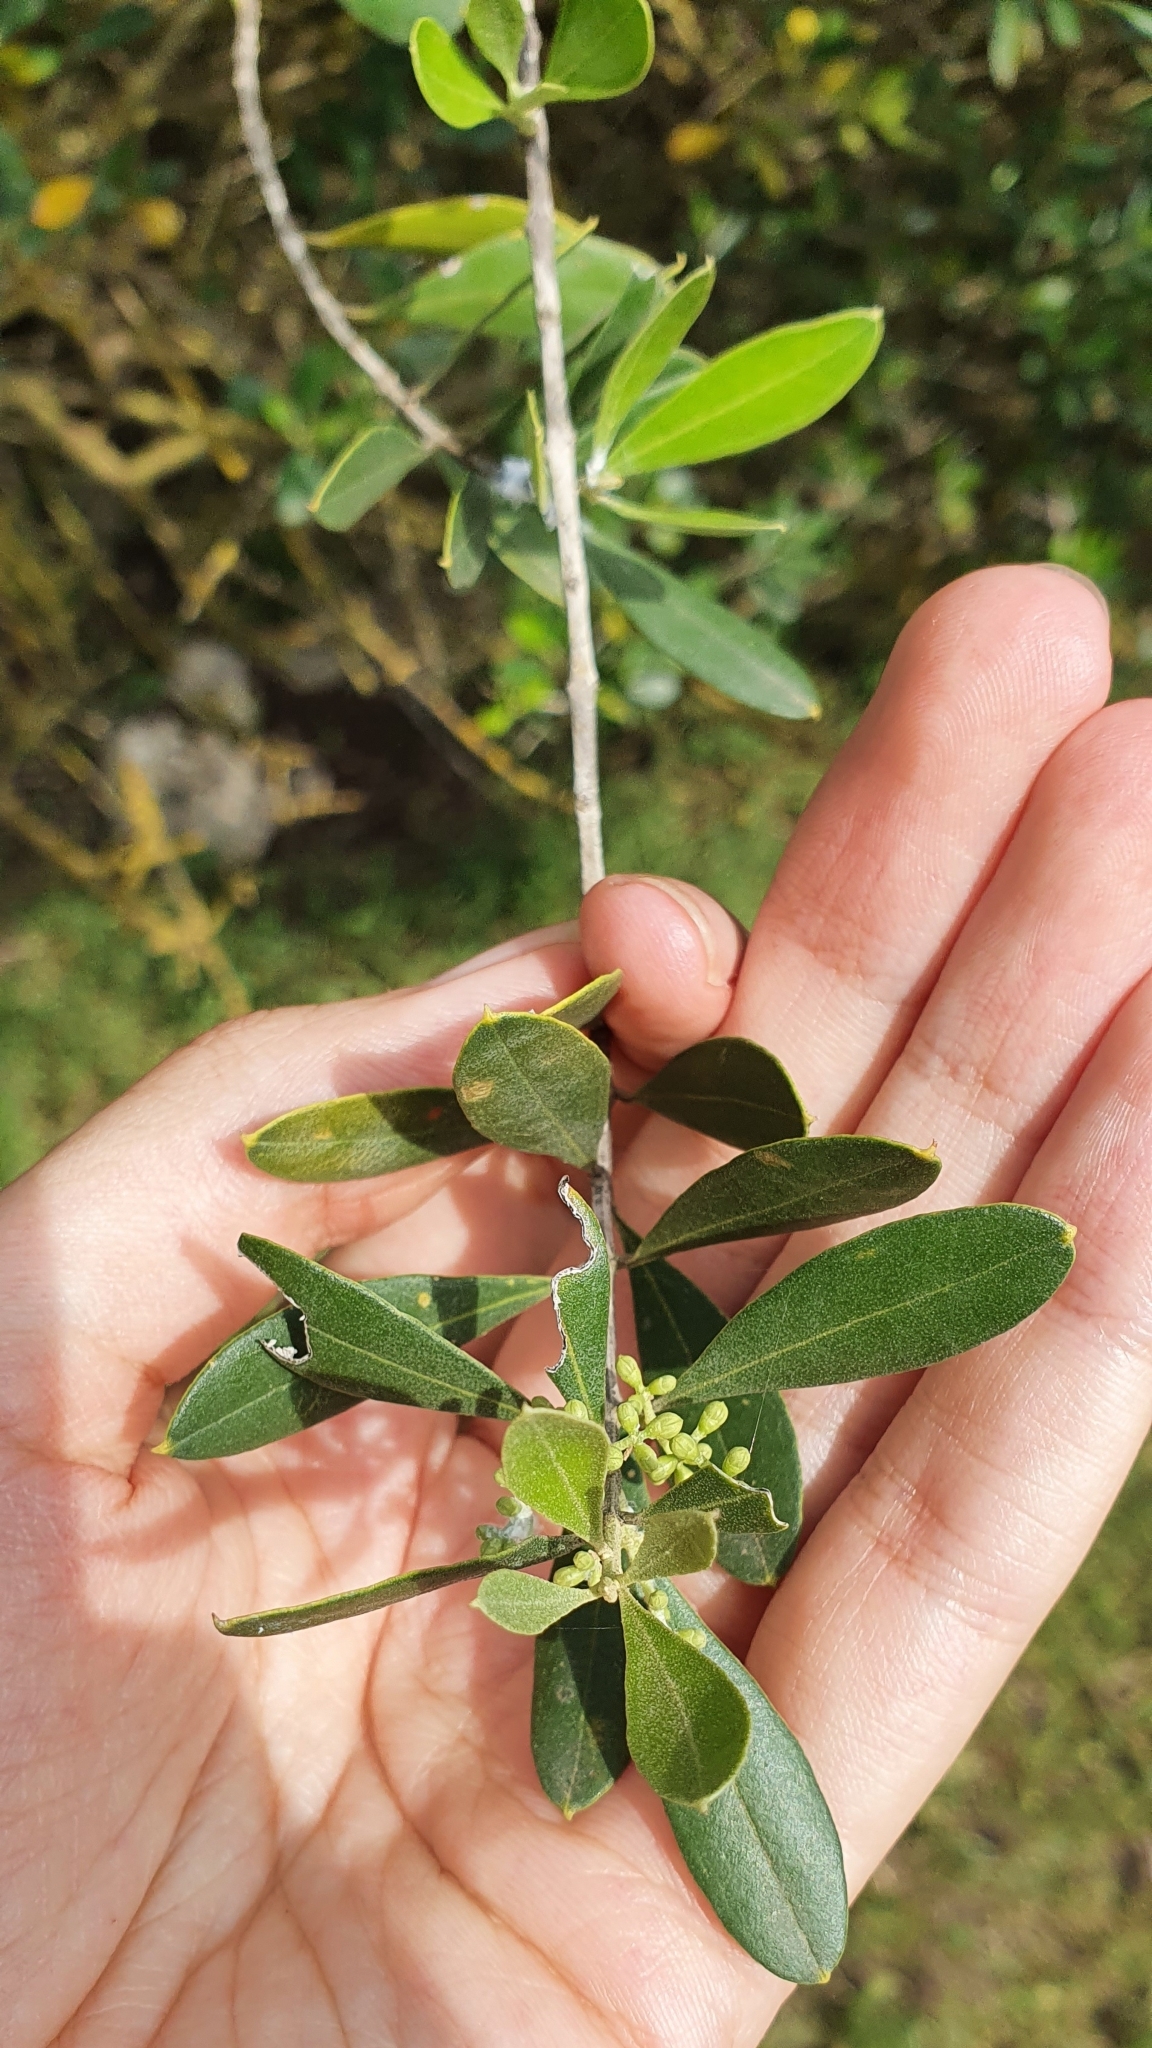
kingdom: Plantae
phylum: Tracheophyta
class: Magnoliopsida
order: Lamiales
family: Oleaceae
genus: Olea
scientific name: Olea europaea
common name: Olive
